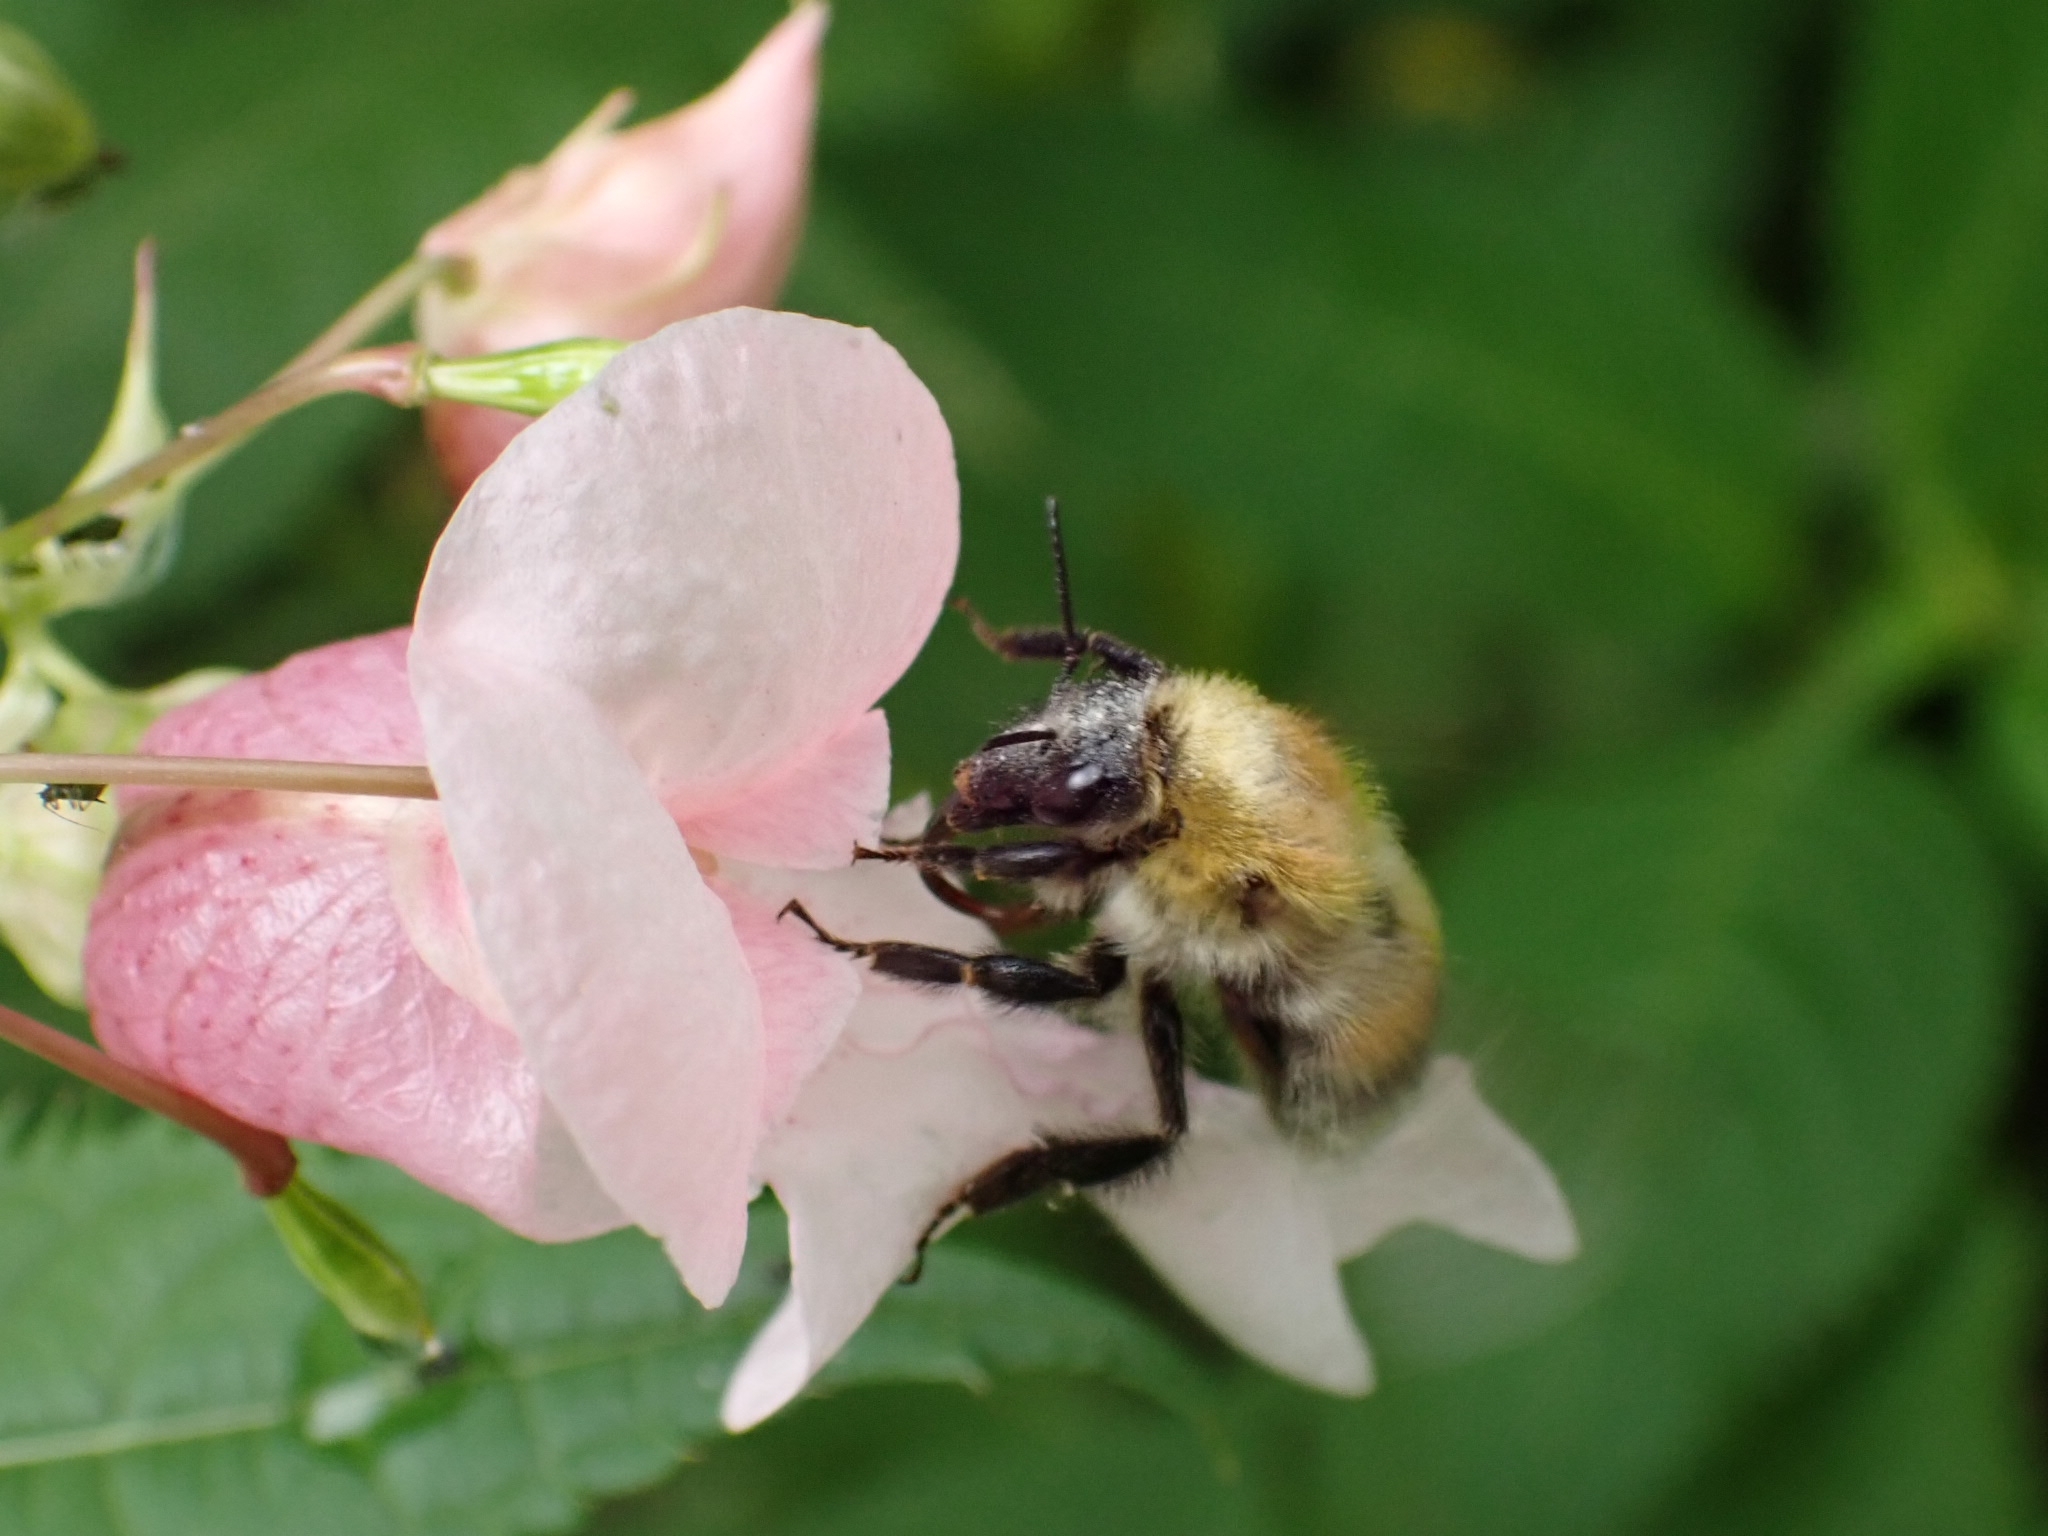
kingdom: Animalia
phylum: Arthropoda
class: Insecta
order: Hymenoptera
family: Apidae
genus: Bombus
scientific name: Bombus consobrinus
